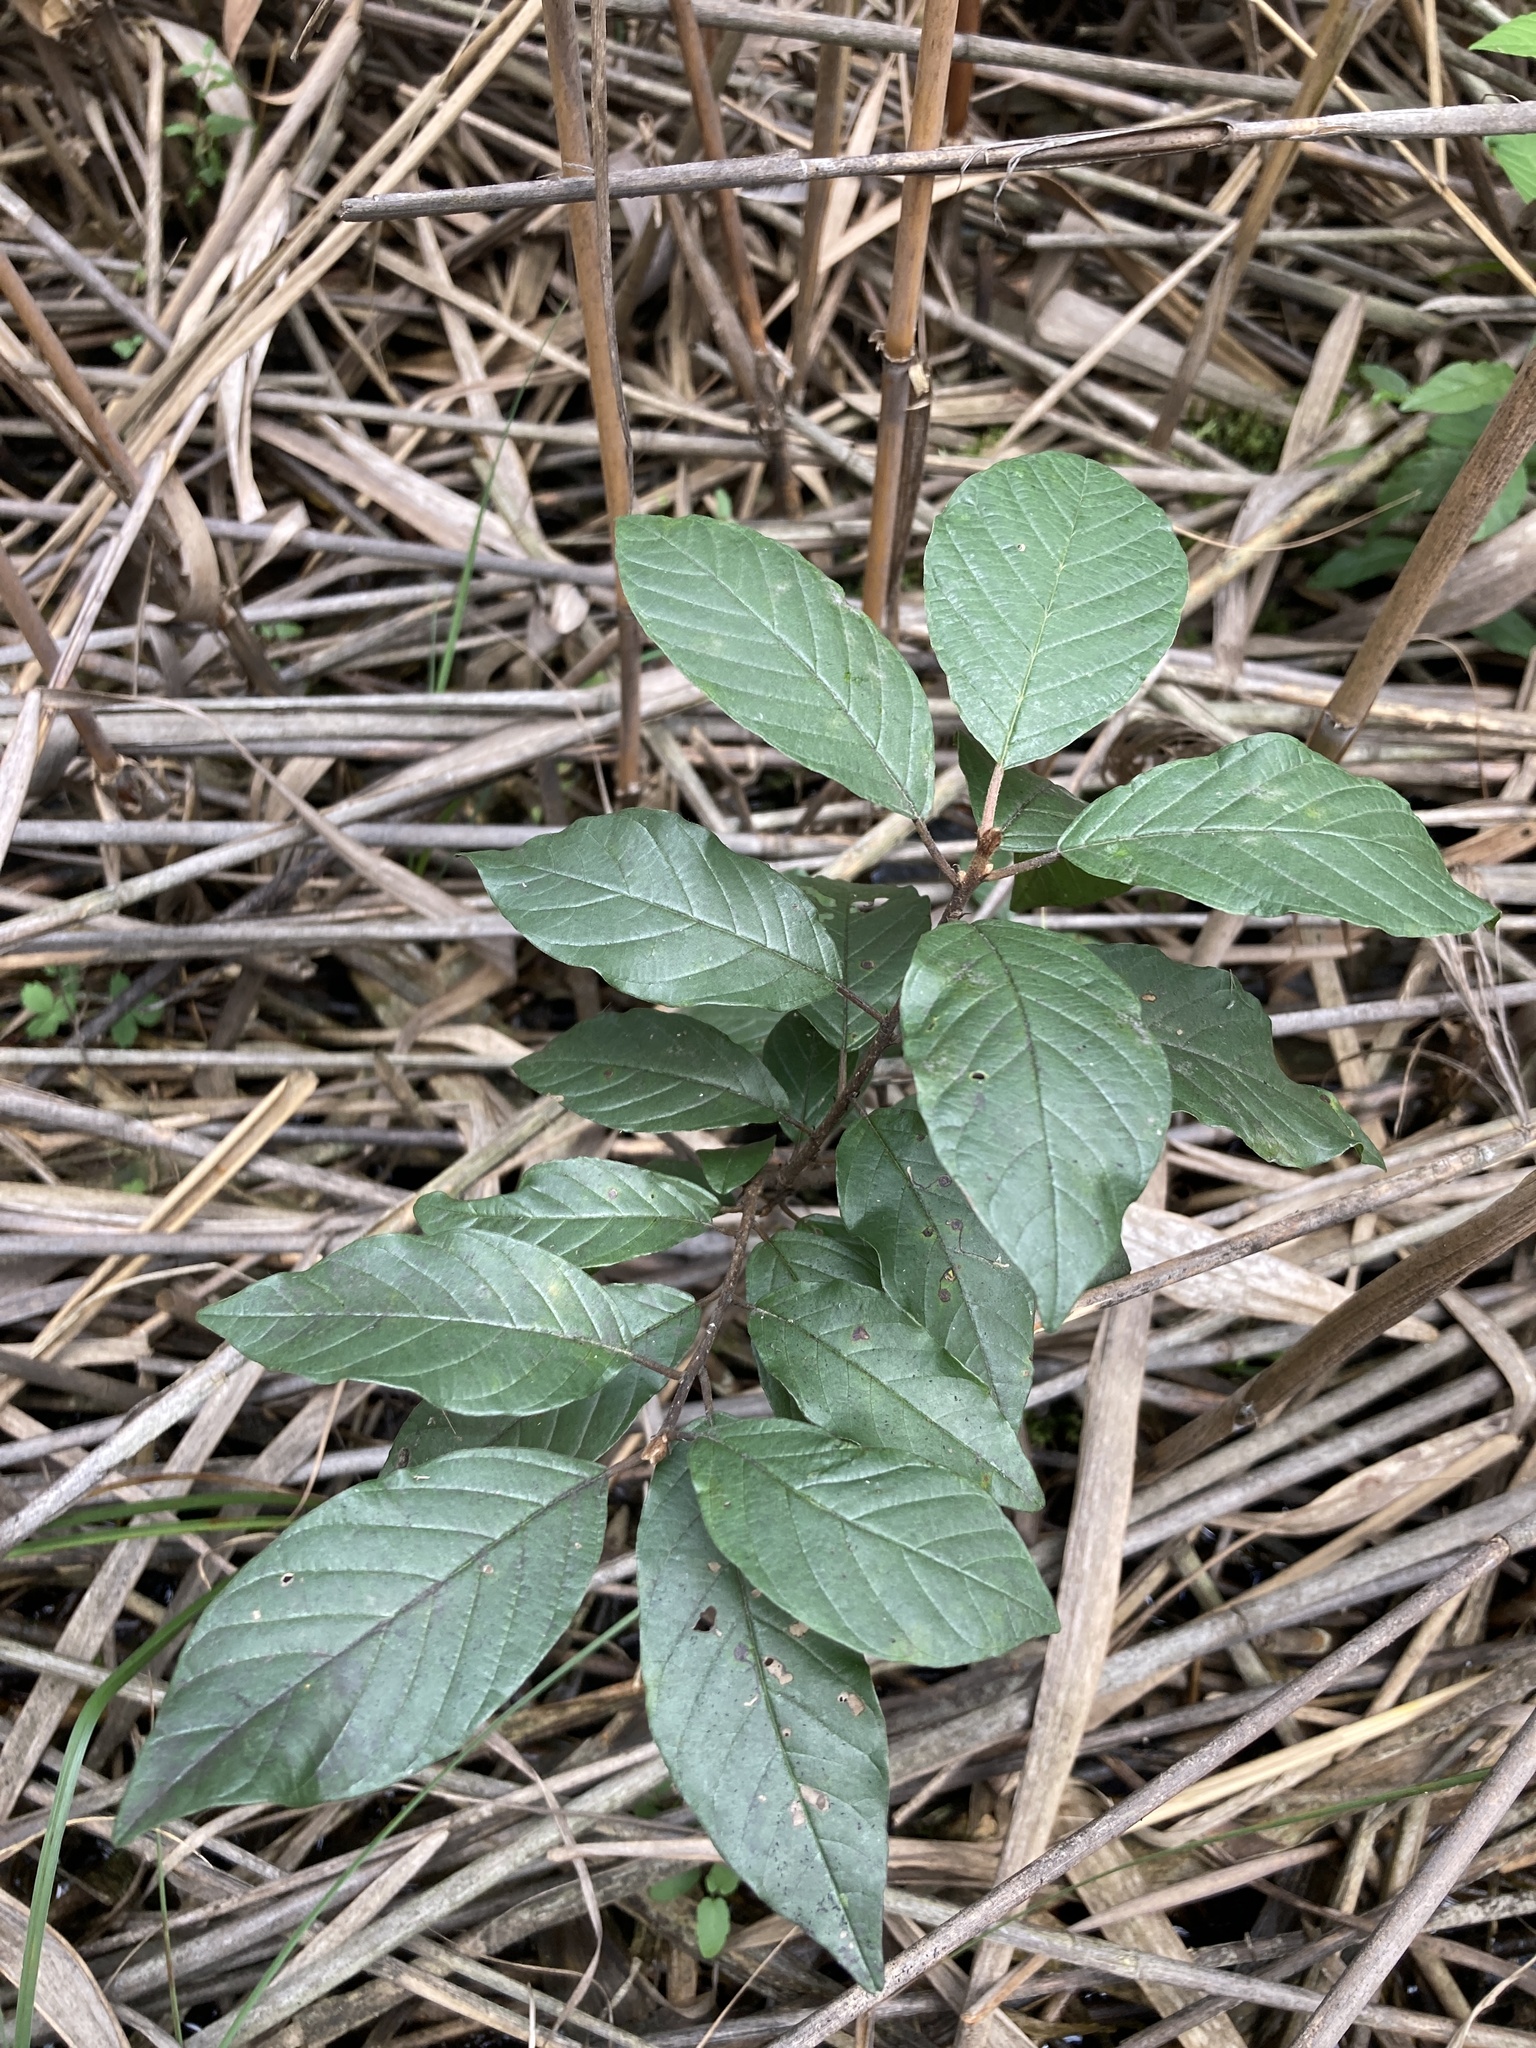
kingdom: Plantae
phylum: Tracheophyta
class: Magnoliopsida
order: Rosales
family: Rhamnaceae
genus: Frangula
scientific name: Frangula alnus
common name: Alder buckthorn
